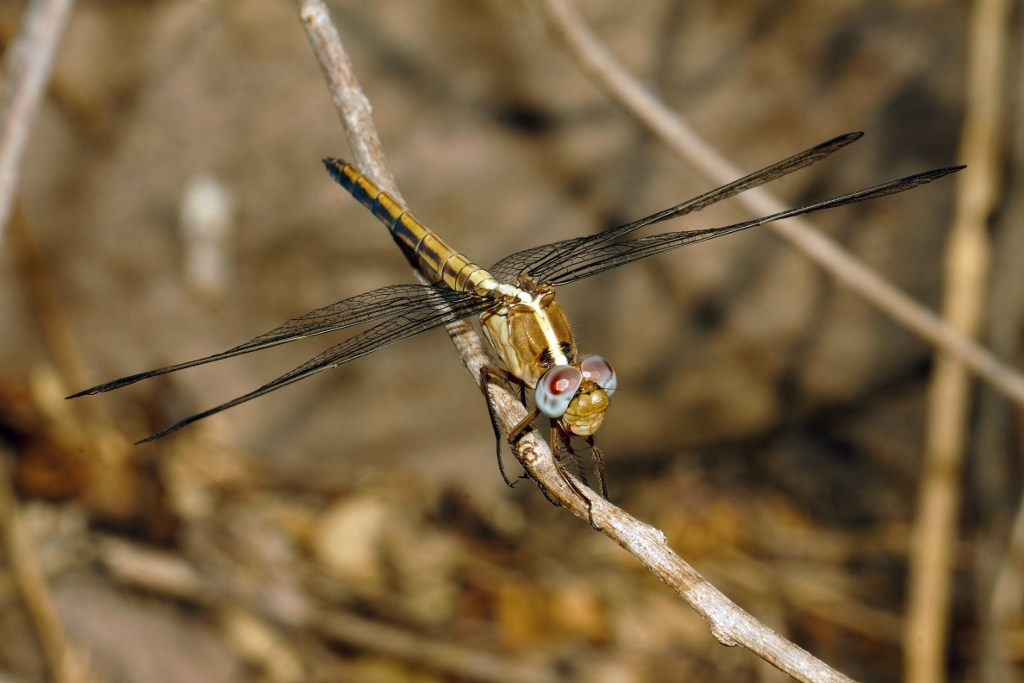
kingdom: Animalia
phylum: Arthropoda
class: Insecta
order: Odonata
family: Libellulidae
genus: Nesciothemis
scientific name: Nesciothemis farinosa
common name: Eastern blacktail
